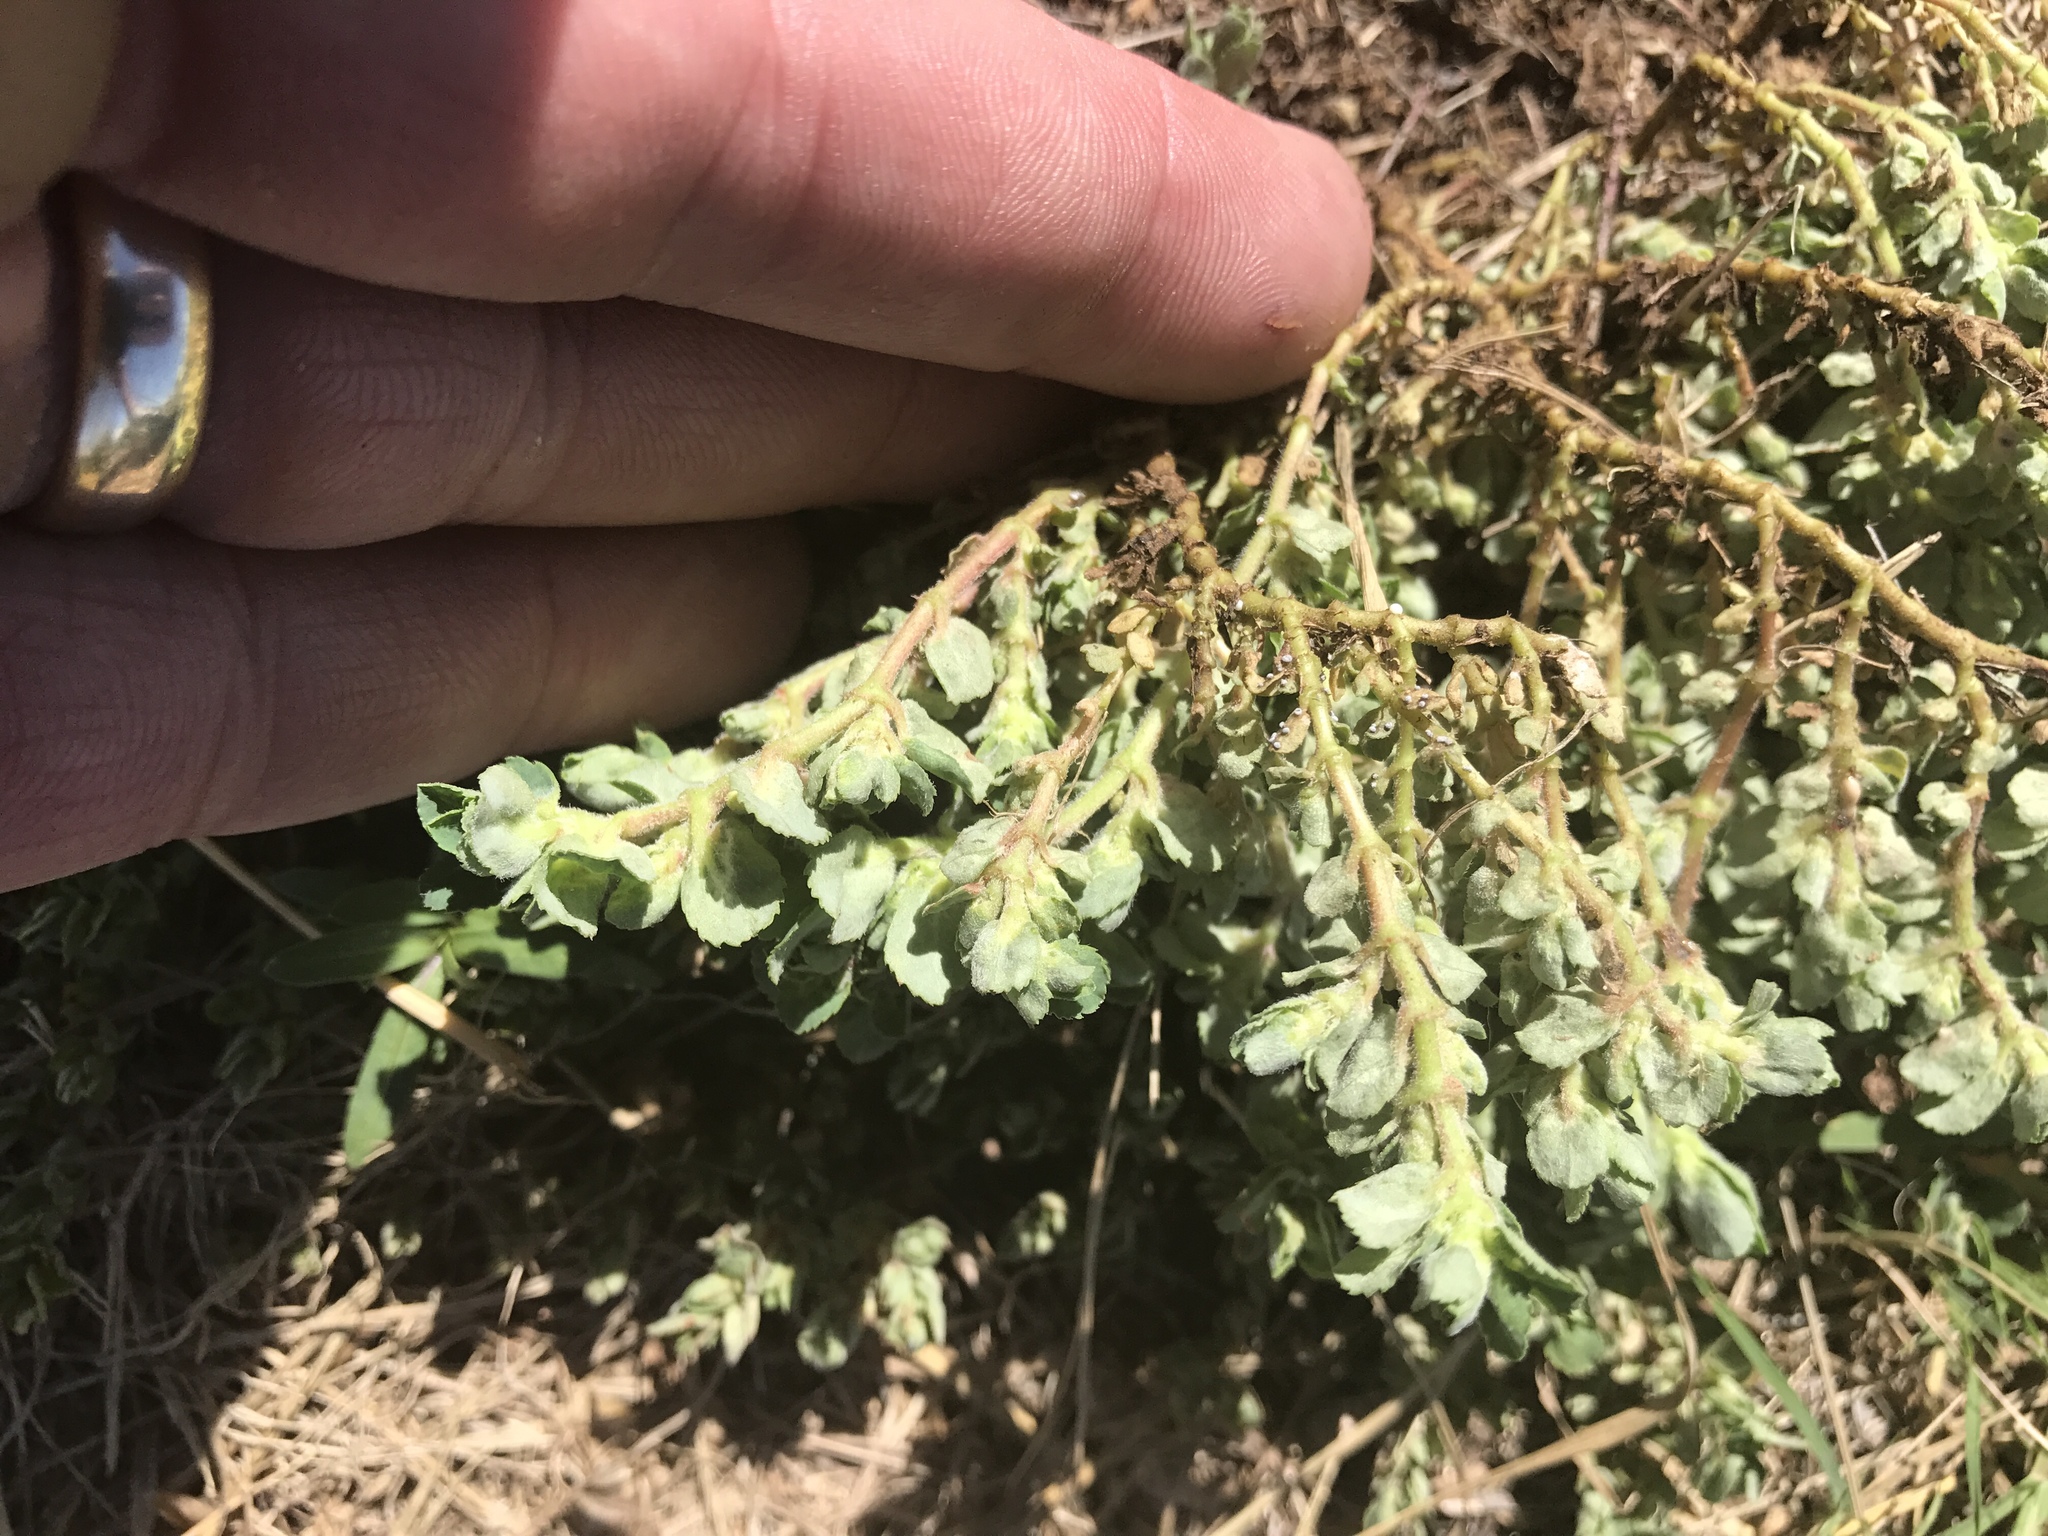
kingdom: Plantae
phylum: Tracheophyta
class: Magnoliopsida
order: Malpighiales
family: Euphorbiaceae
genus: Euphorbia
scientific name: Euphorbia stictospora
